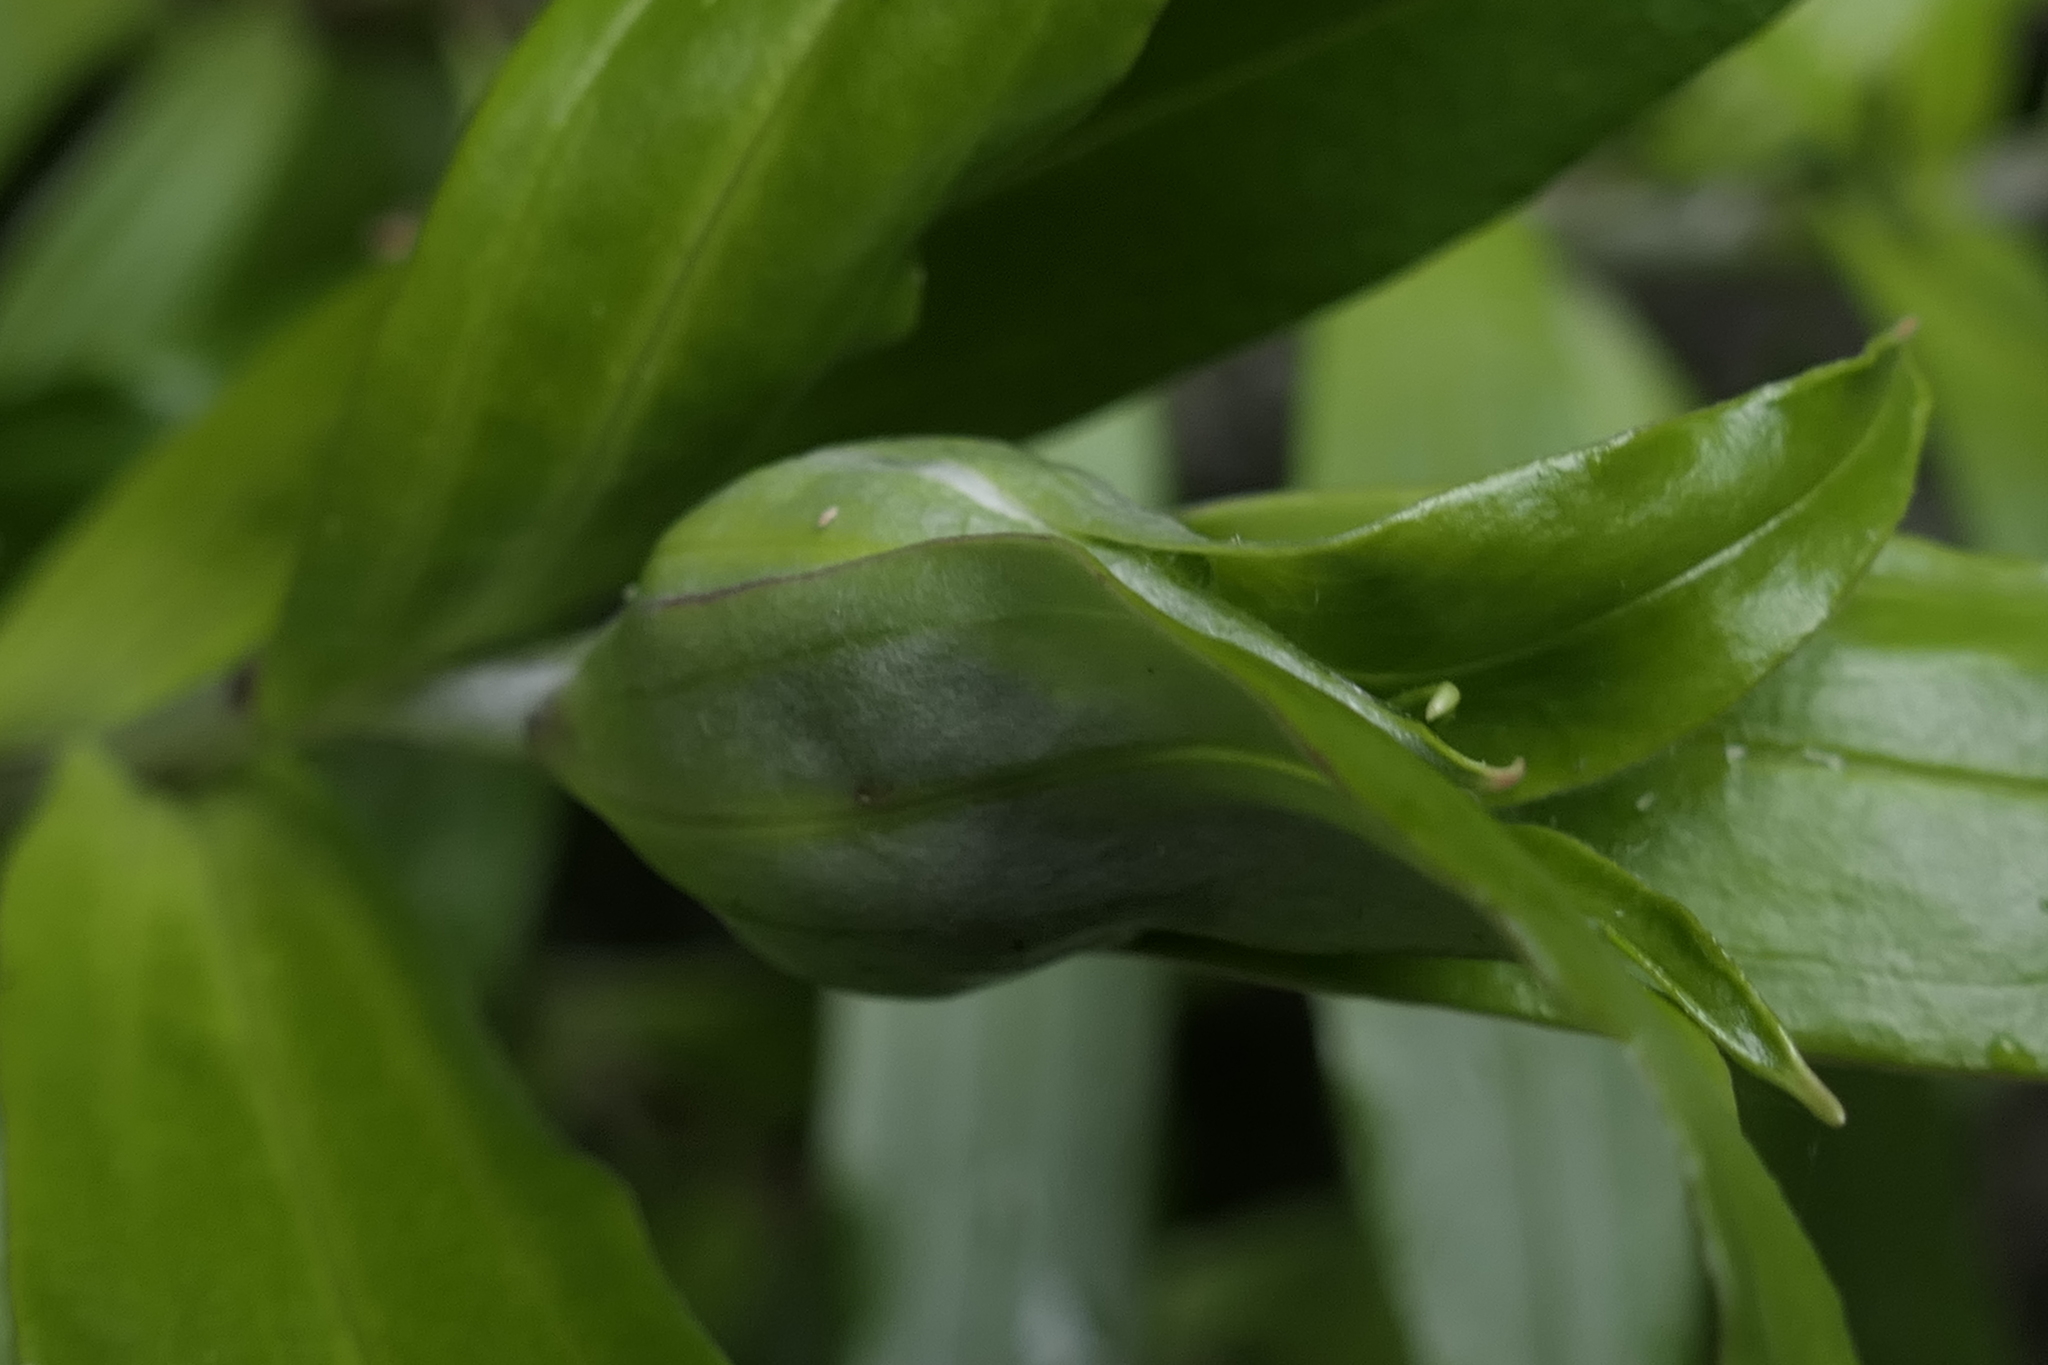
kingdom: Plantae
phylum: Tracheophyta
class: Magnoliopsida
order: Asterales
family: Asteraceae
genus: Anaphalioides
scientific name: Anaphalioides trinervis
